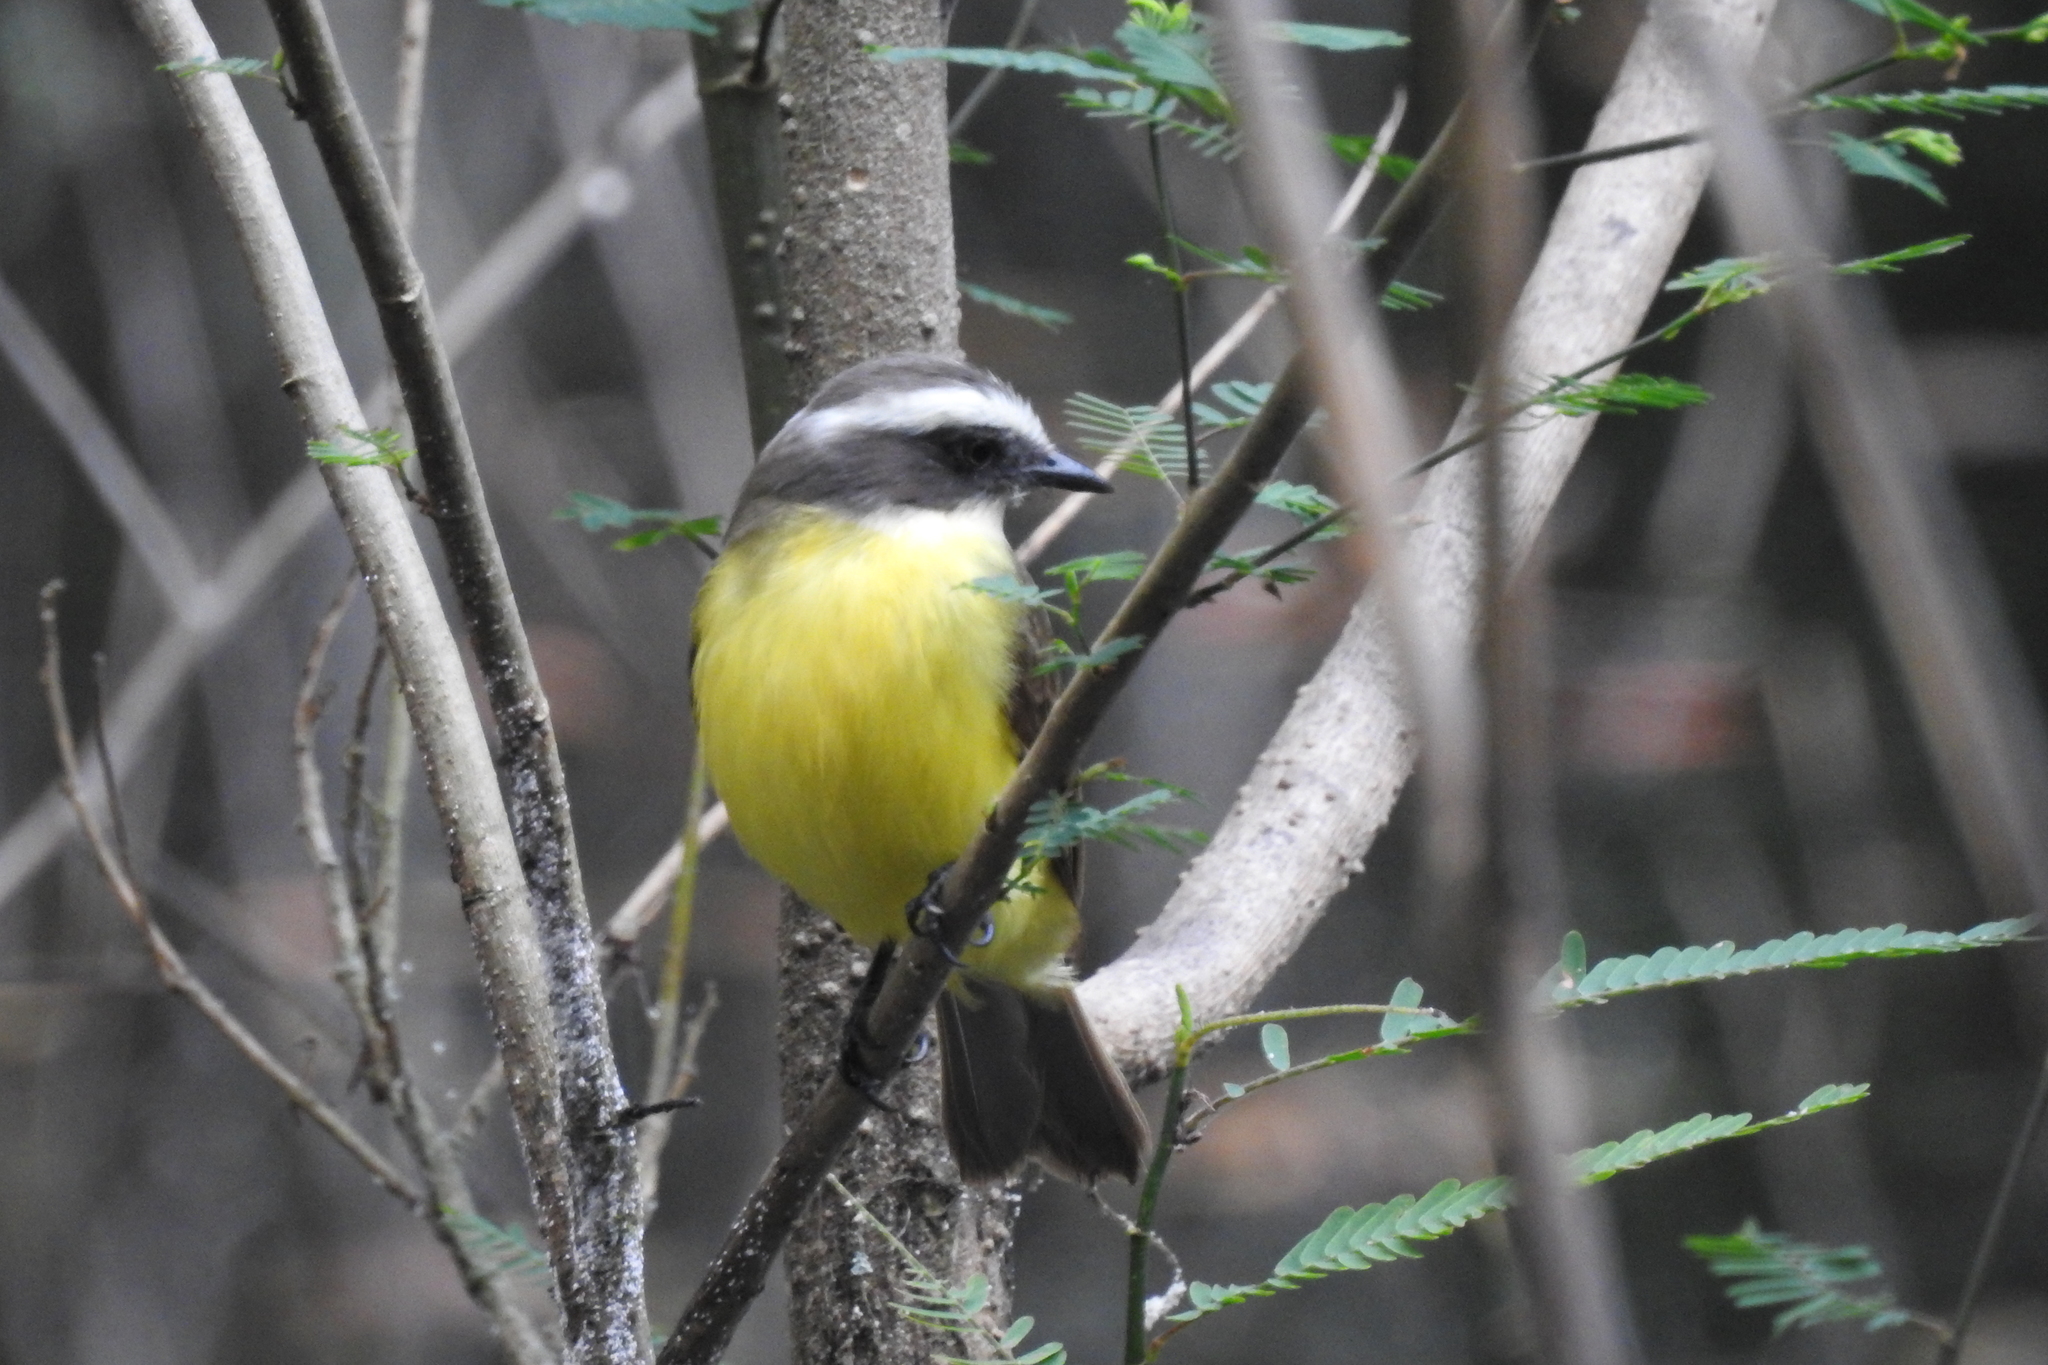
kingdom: Animalia
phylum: Chordata
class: Aves
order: Passeriformes
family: Tyrannidae
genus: Myiozetetes
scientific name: Myiozetetes similis
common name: Social flycatcher
